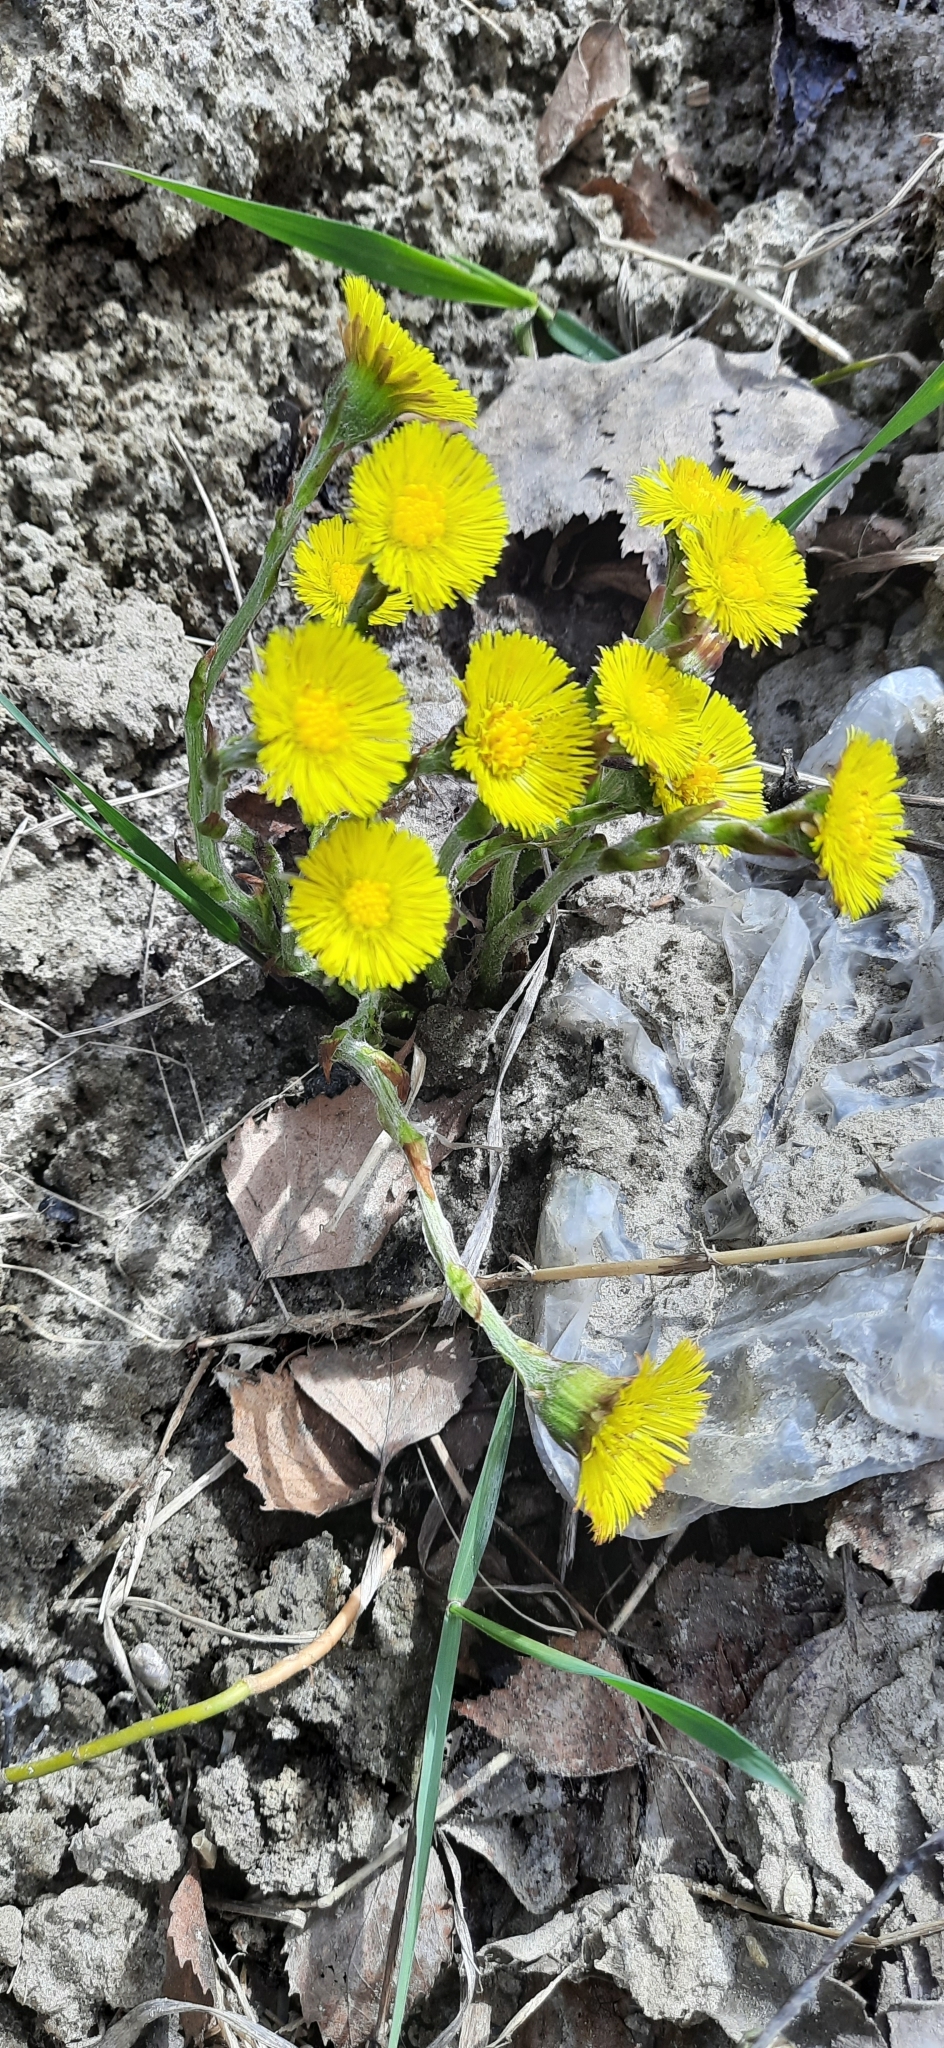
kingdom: Plantae
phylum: Tracheophyta
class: Magnoliopsida
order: Asterales
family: Asteraceae
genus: Tussilago
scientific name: Tussilago farfara
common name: Coltsfoot
